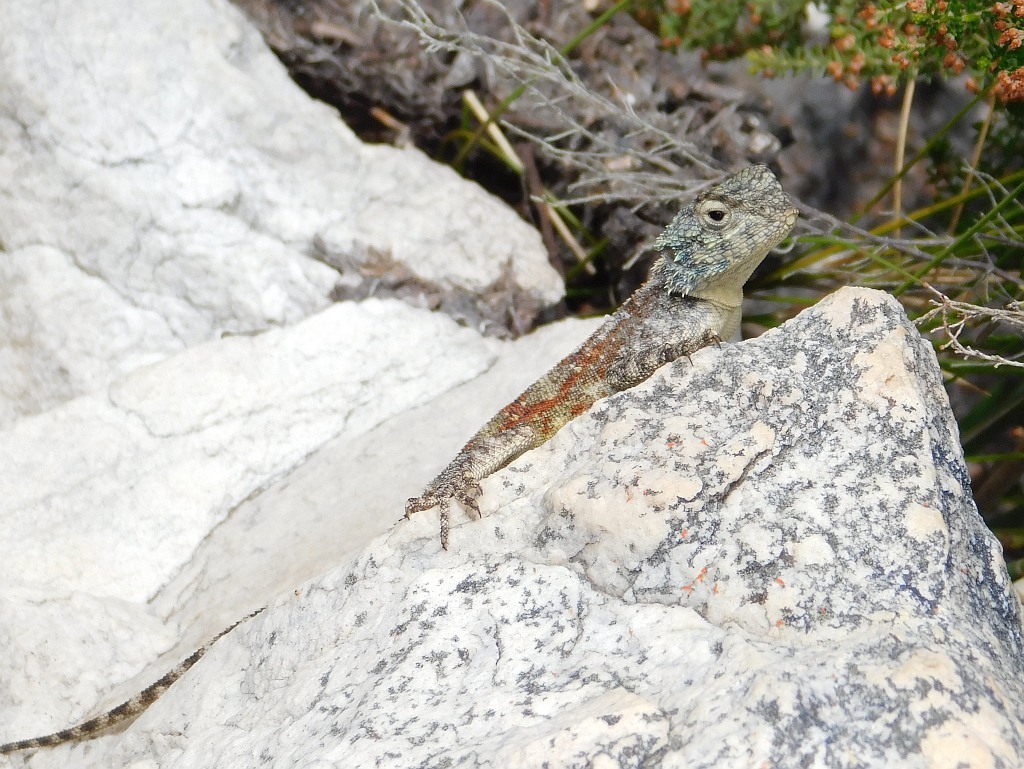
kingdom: Animalia
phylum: Chordata
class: Squamata
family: Agamidae
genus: Agama
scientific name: Agama atra
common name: Southern african rock agama
